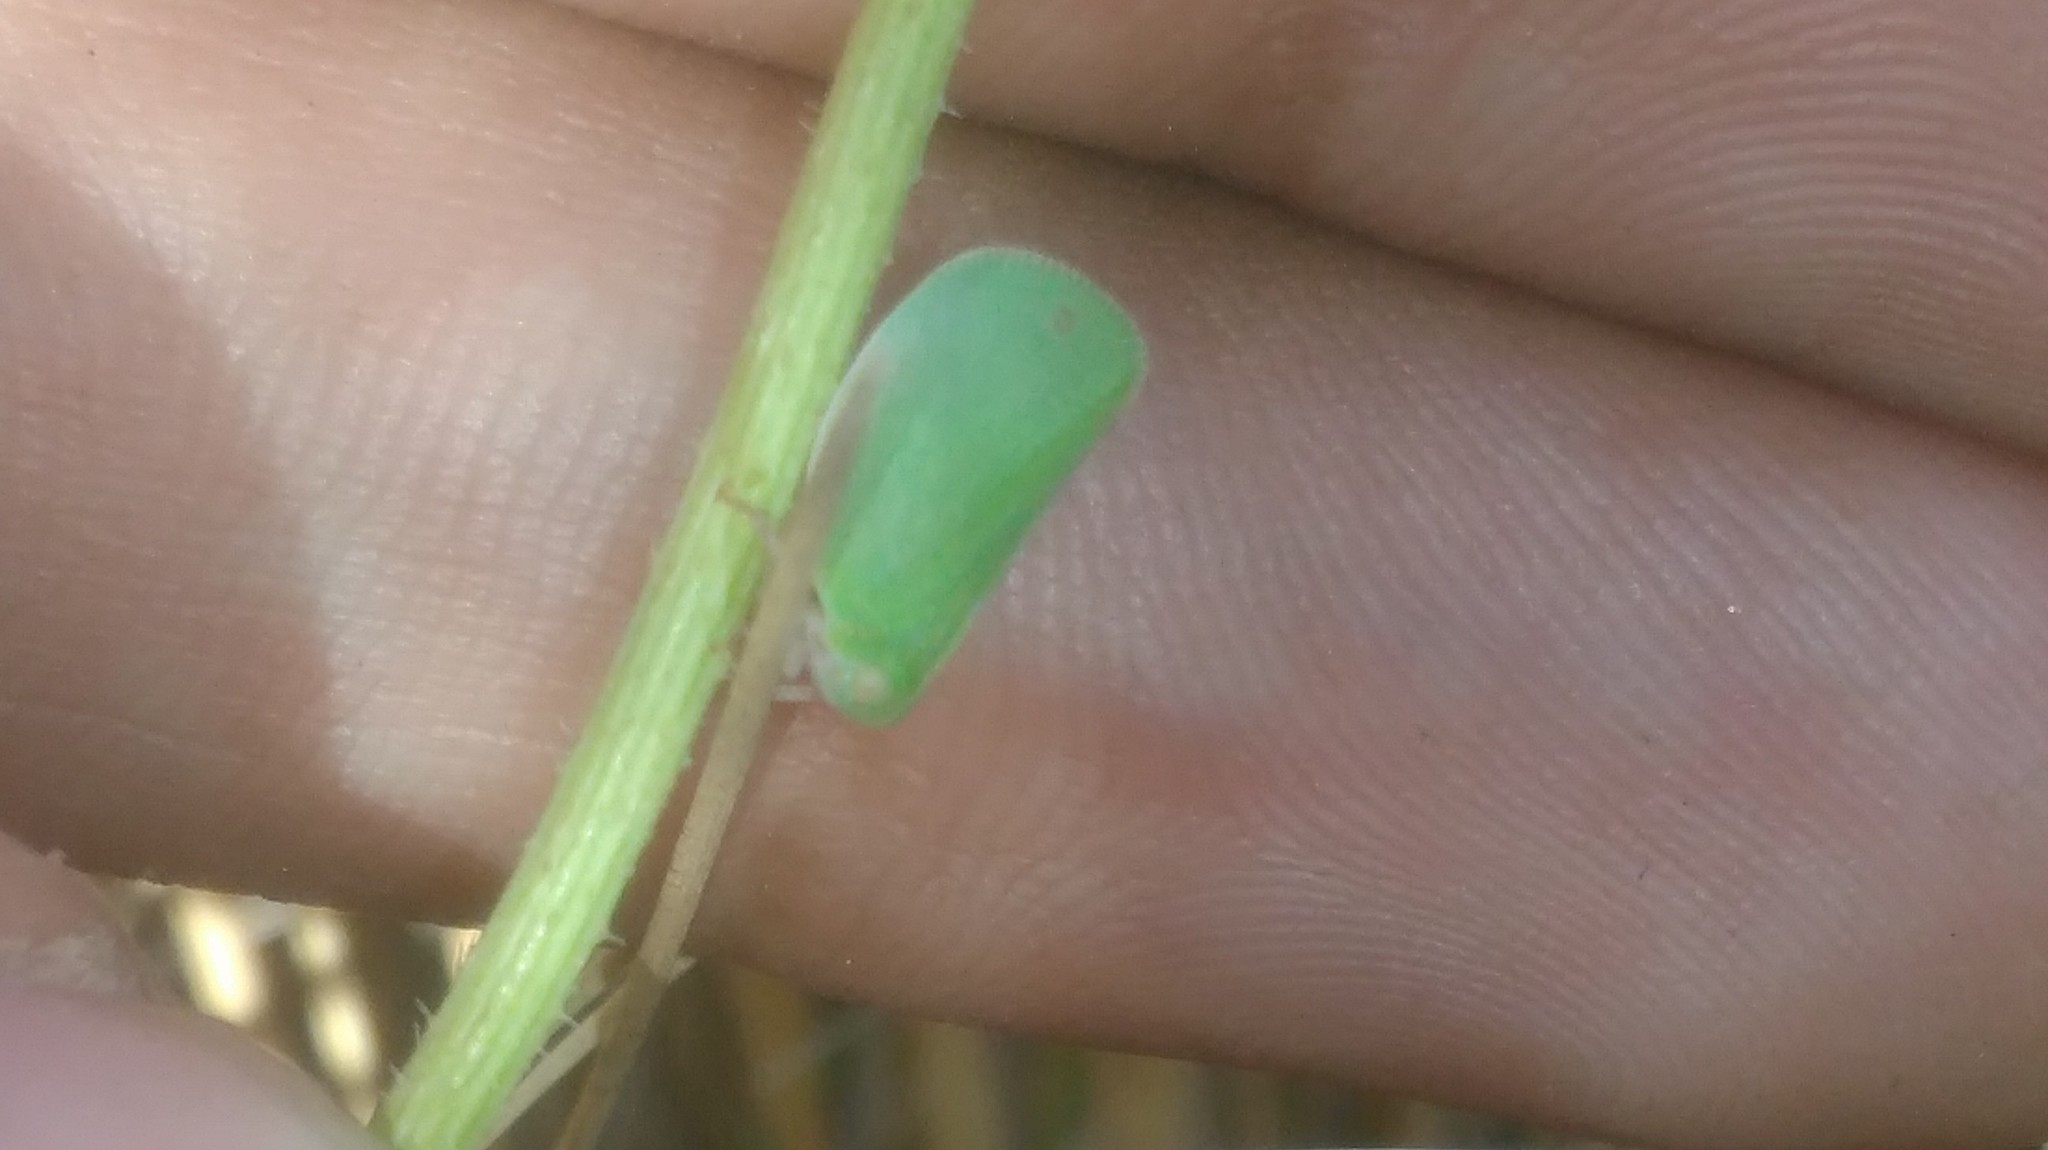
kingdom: Animalia
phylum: Arthropoda
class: Insecta
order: Hemiptera
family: Acanaloniidae
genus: Acanalonia
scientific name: Acanalonia chloris
